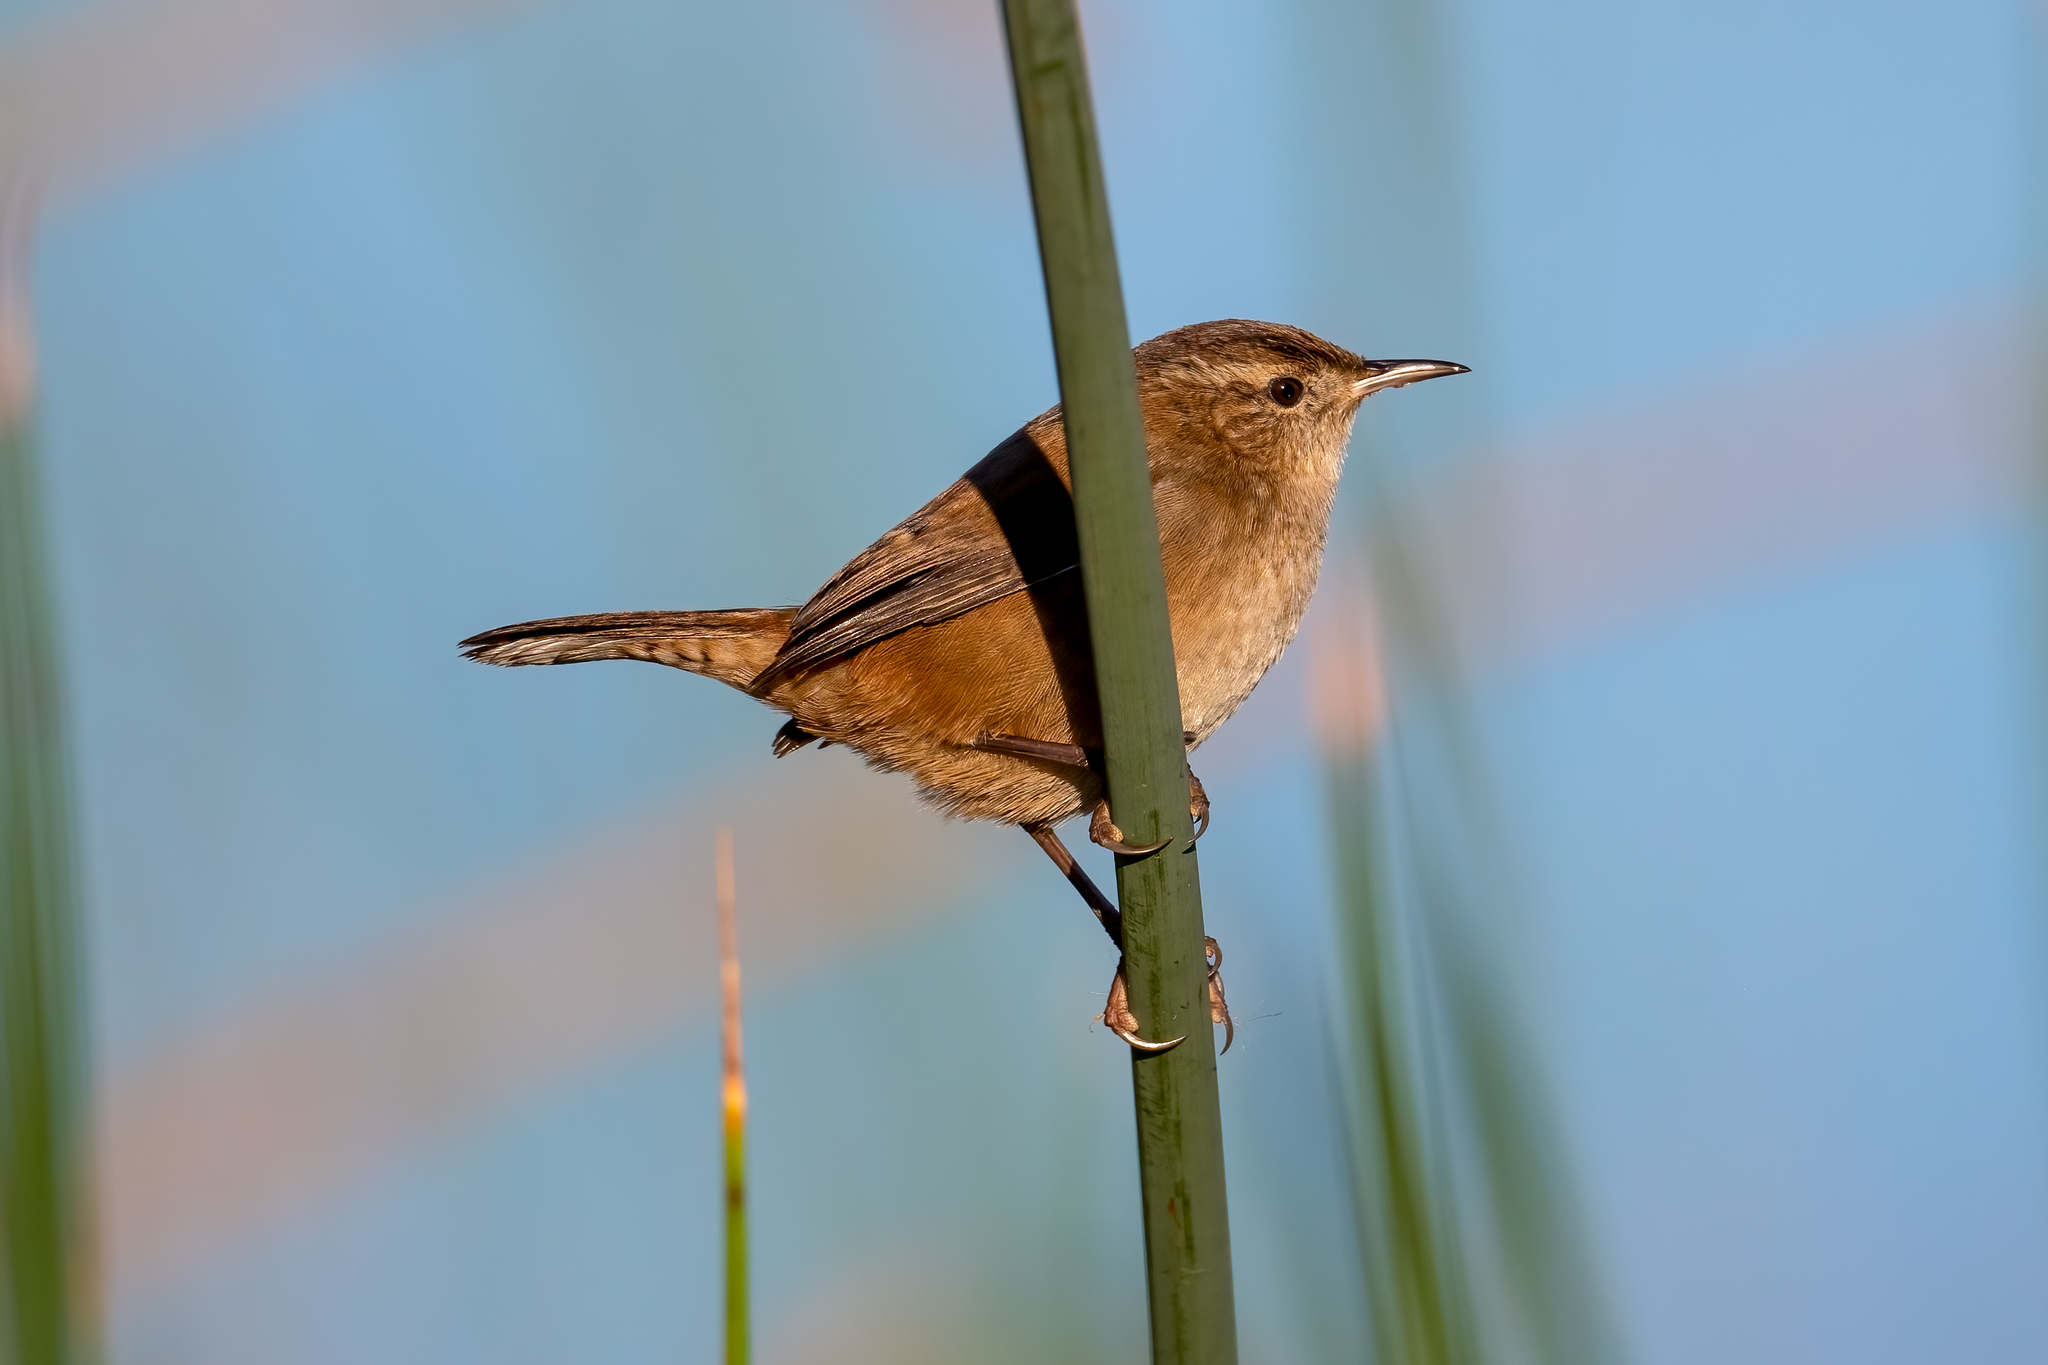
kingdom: Animalia
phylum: Chordata
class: Aves
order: Passeriformes
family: Troglodytidae
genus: Cistothorus
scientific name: Cistothorus palustris
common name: Marsh wren
